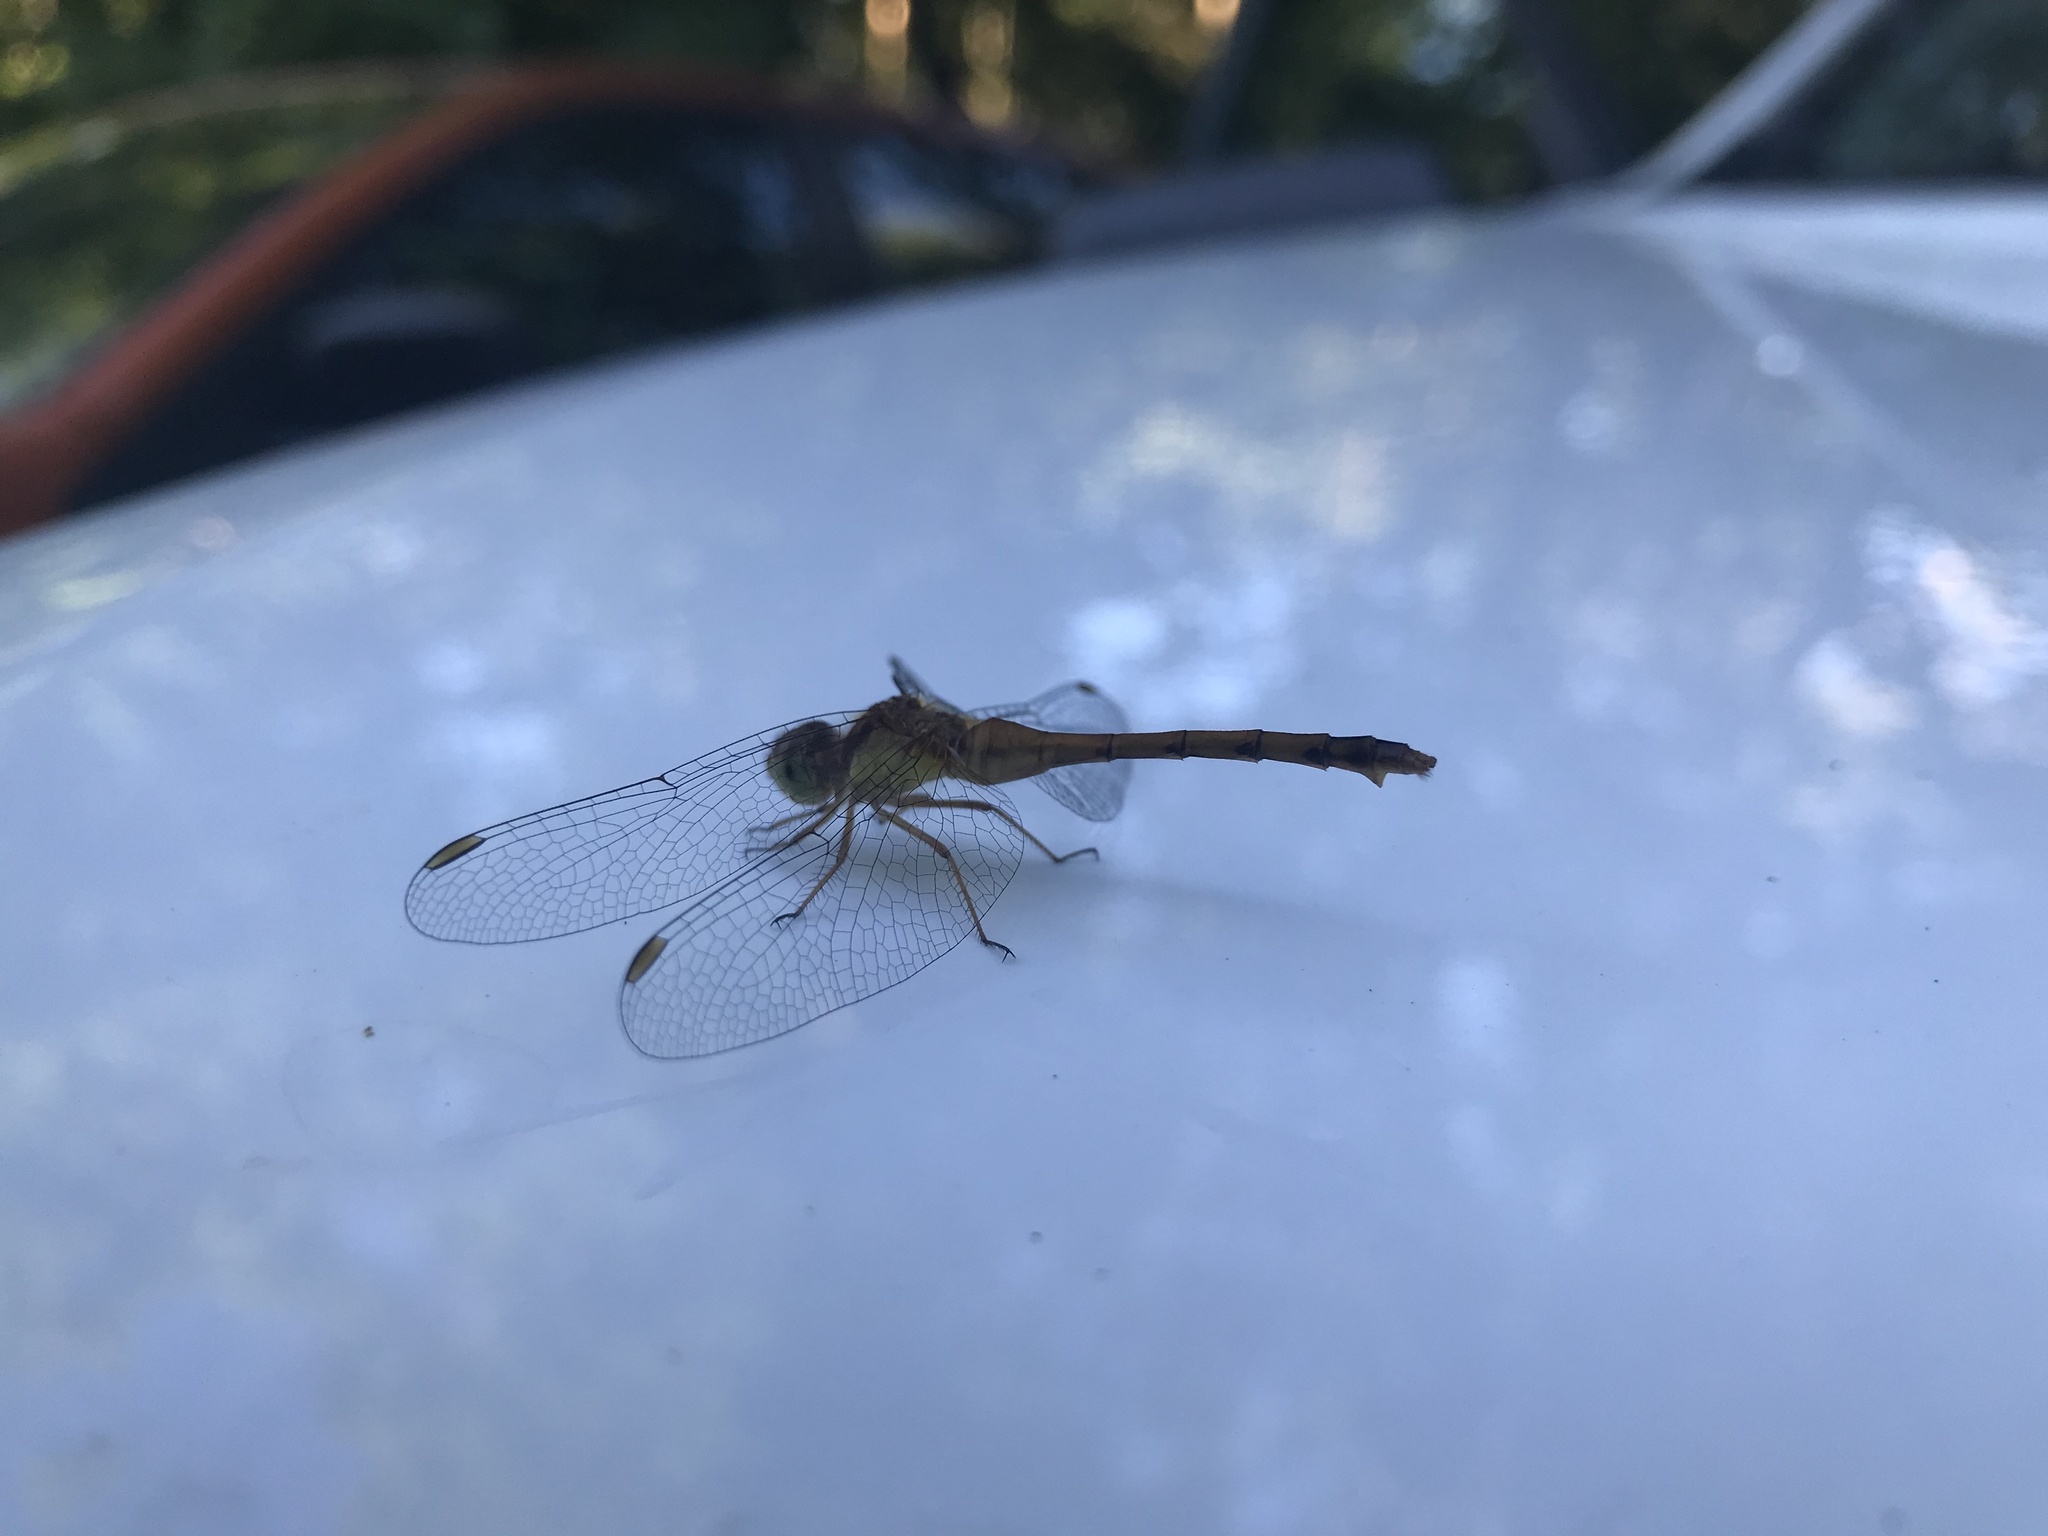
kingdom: Animalia
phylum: Arthropoda
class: Insecta
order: Odonata
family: Libellulidae
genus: Sympetrum
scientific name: Sympetrum vicinum
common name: Autumn meadowhawk
